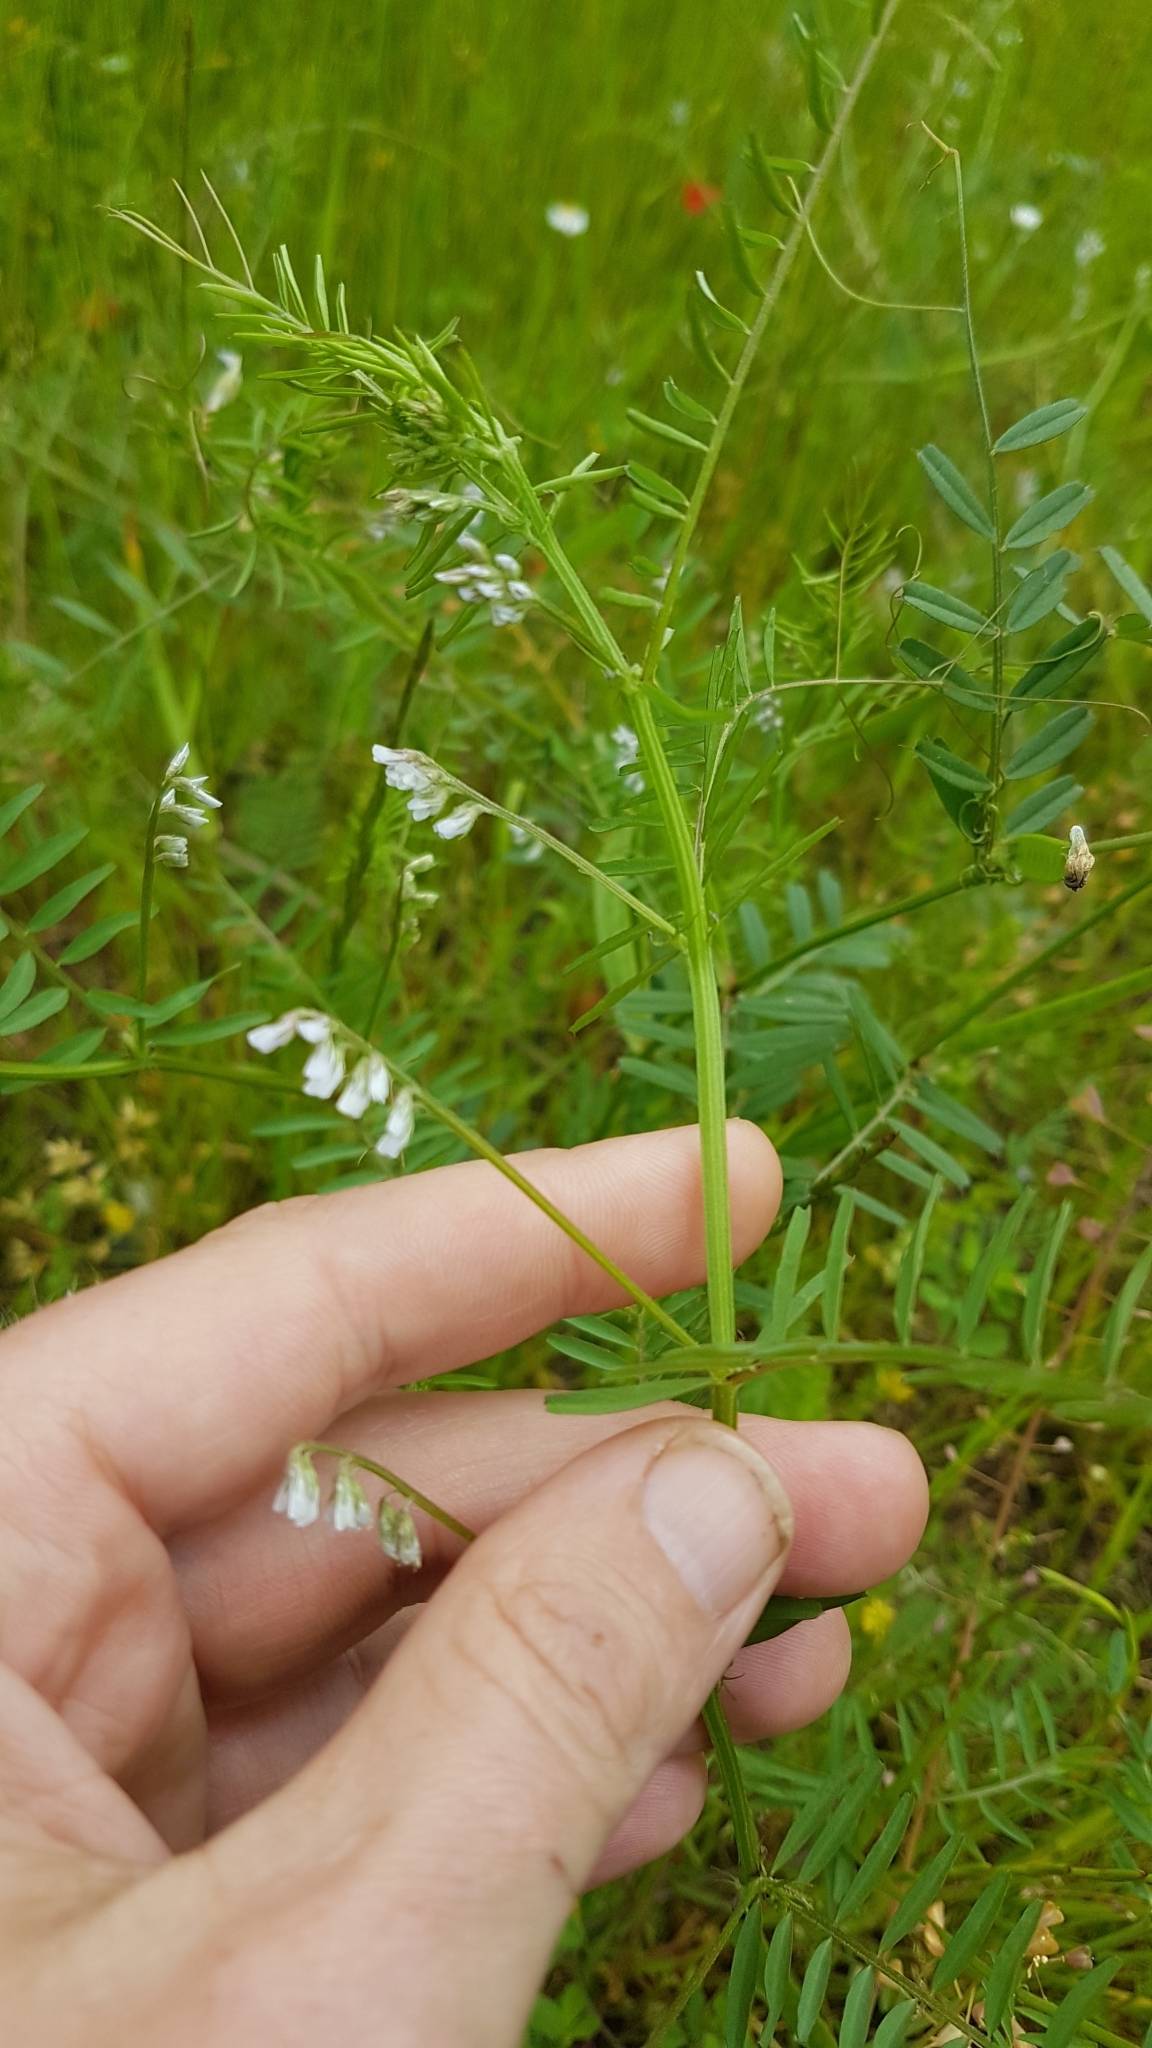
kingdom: Plantae
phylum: Tracheophyta
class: Magnoliopsida
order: Fabales
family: Fabaceae
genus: Vicia
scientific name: Vicia hirsuta
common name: Tiny vetch
